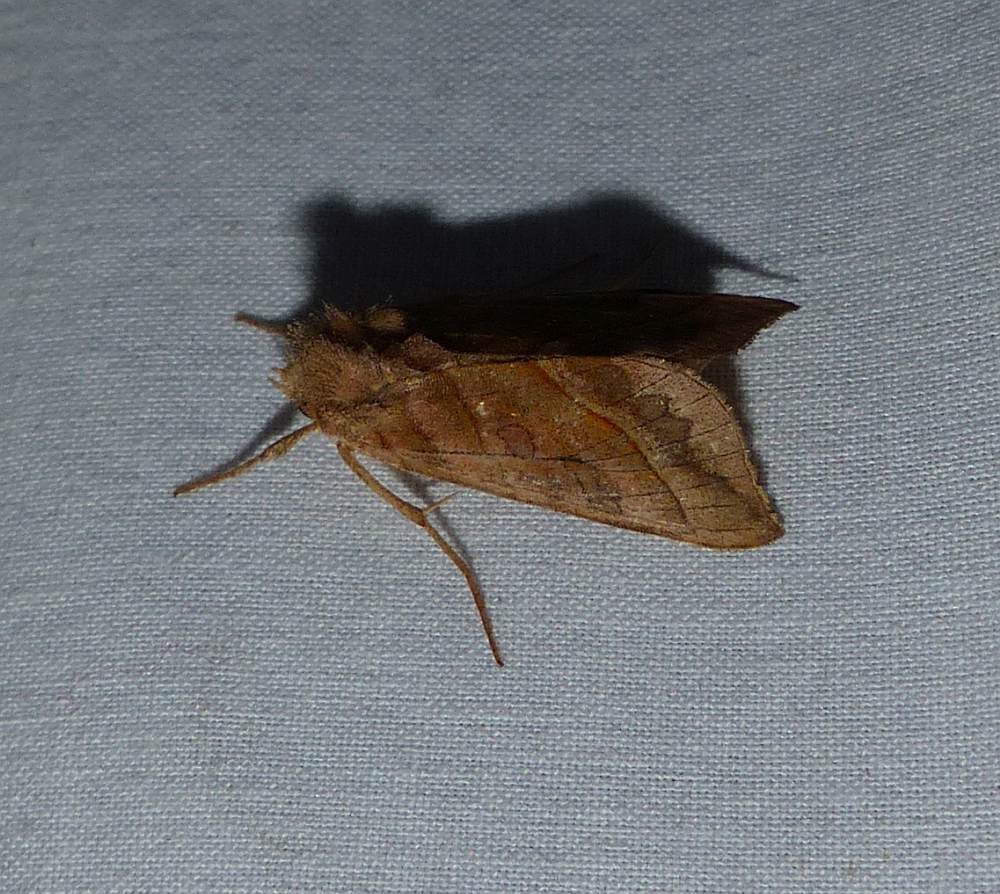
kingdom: Animalia
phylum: Arthropoda
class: Insecta
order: Lepidoptera
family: Noctuidae
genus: Diachrysia
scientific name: Diachrysia aereoides
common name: Dark-spotted looper moth
